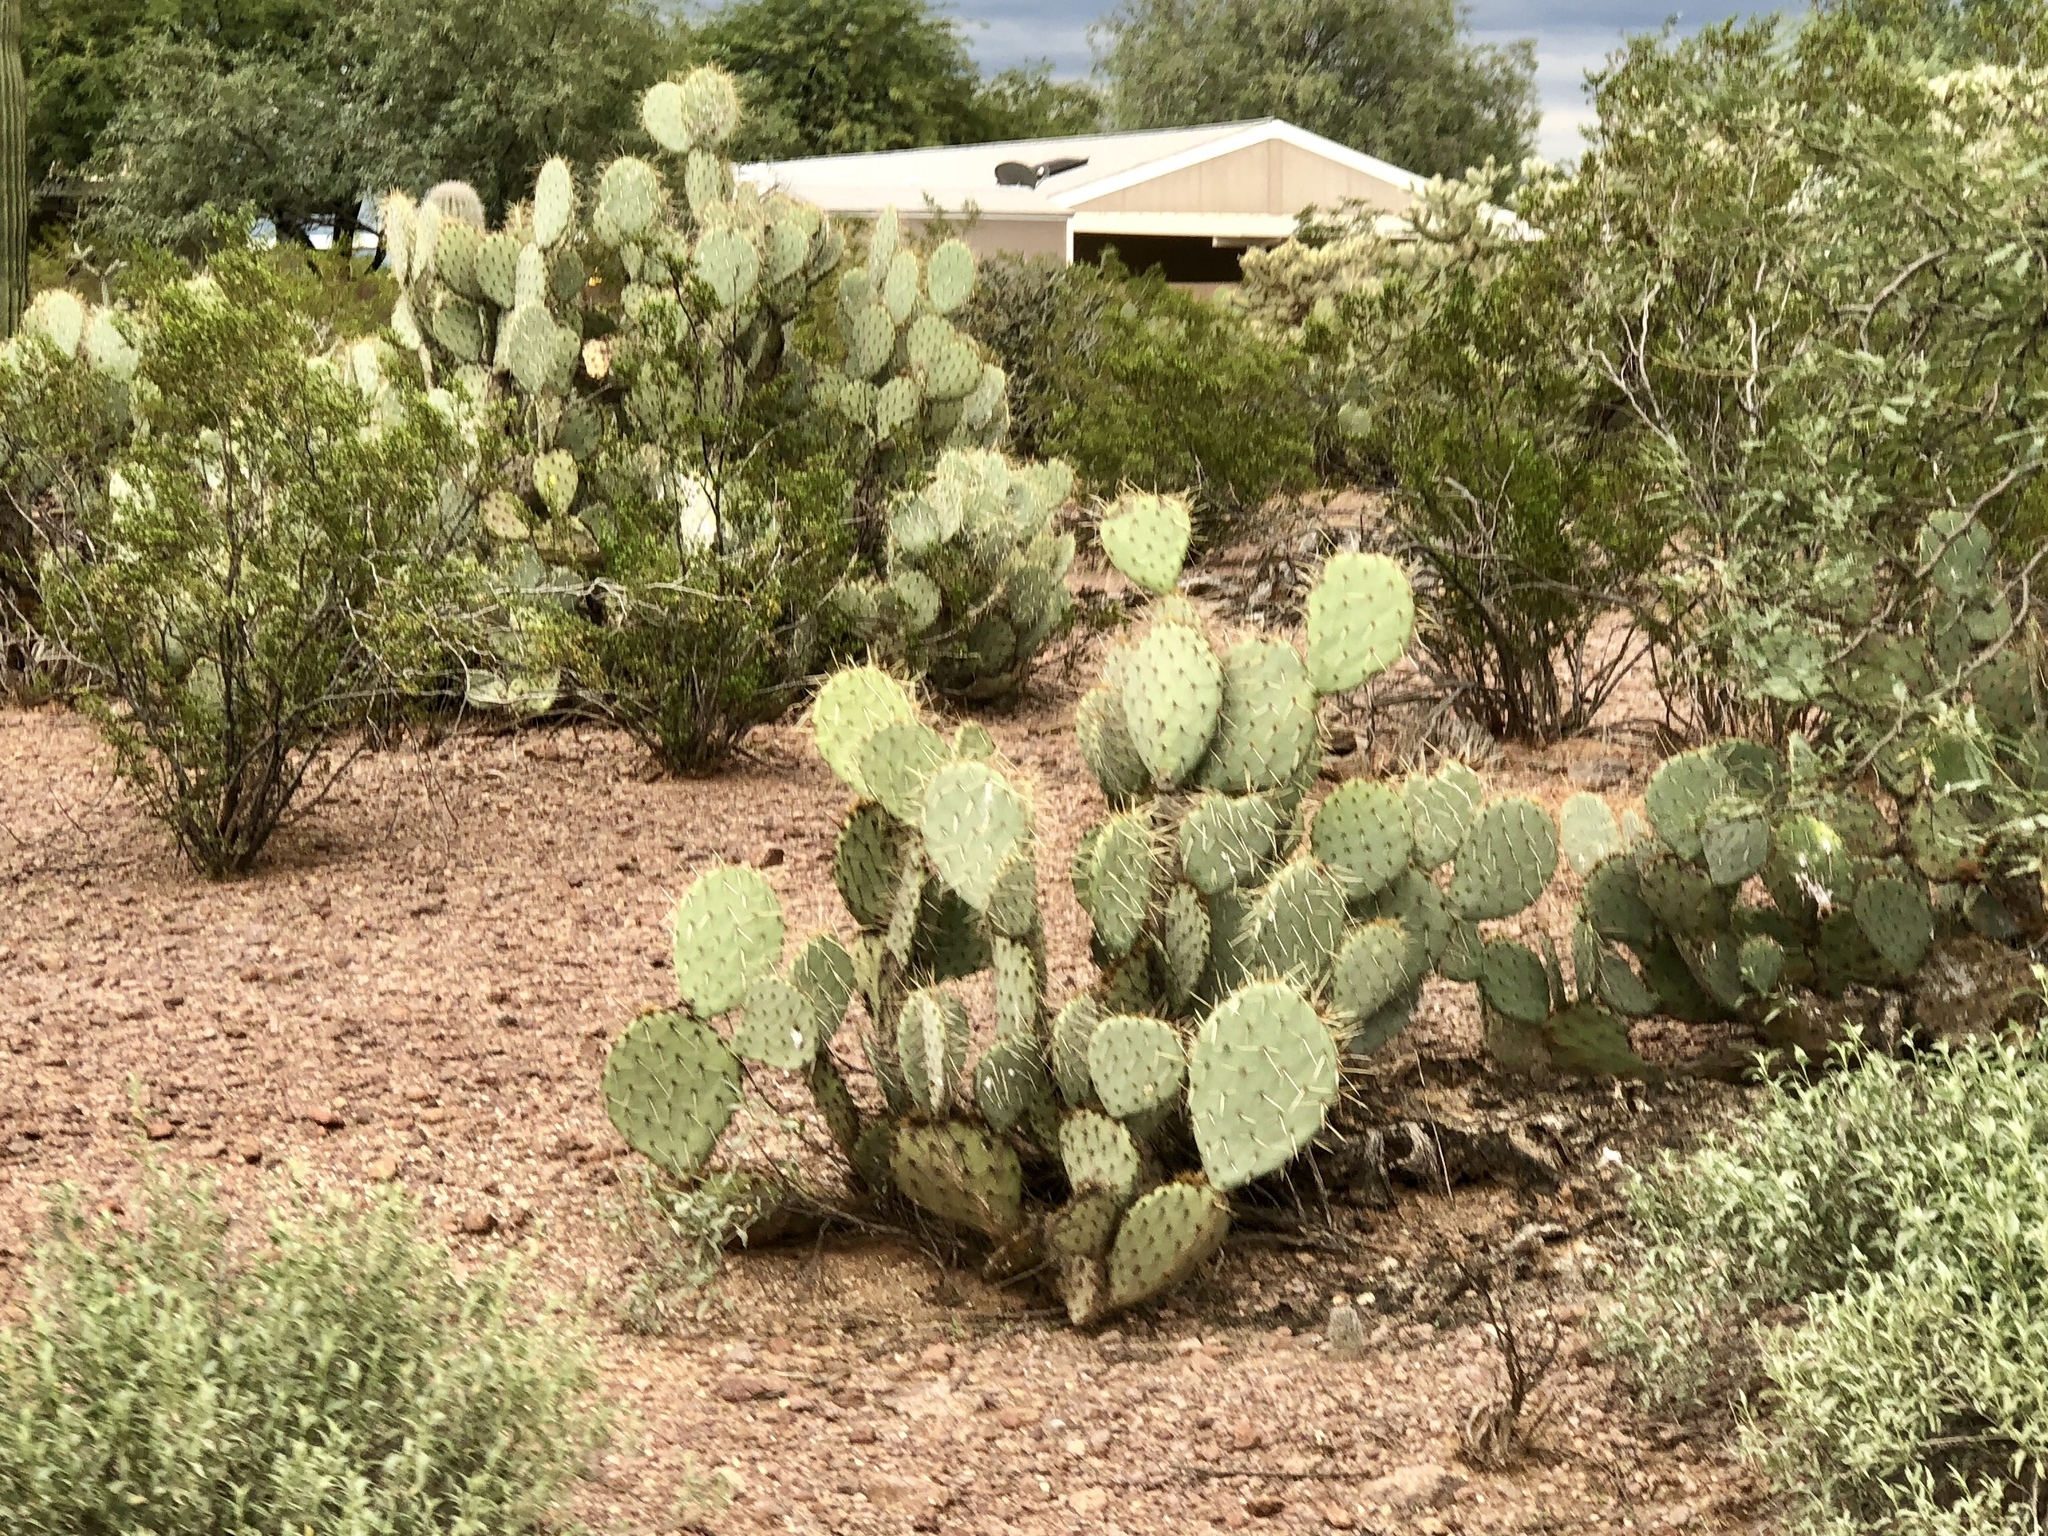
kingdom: Plantae
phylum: Tracheophyta
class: Magnoliopsida
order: Caryophyllales
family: Cactaceae
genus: Opuntia
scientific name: Opuntia engelmannii
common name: Cactus-apple
